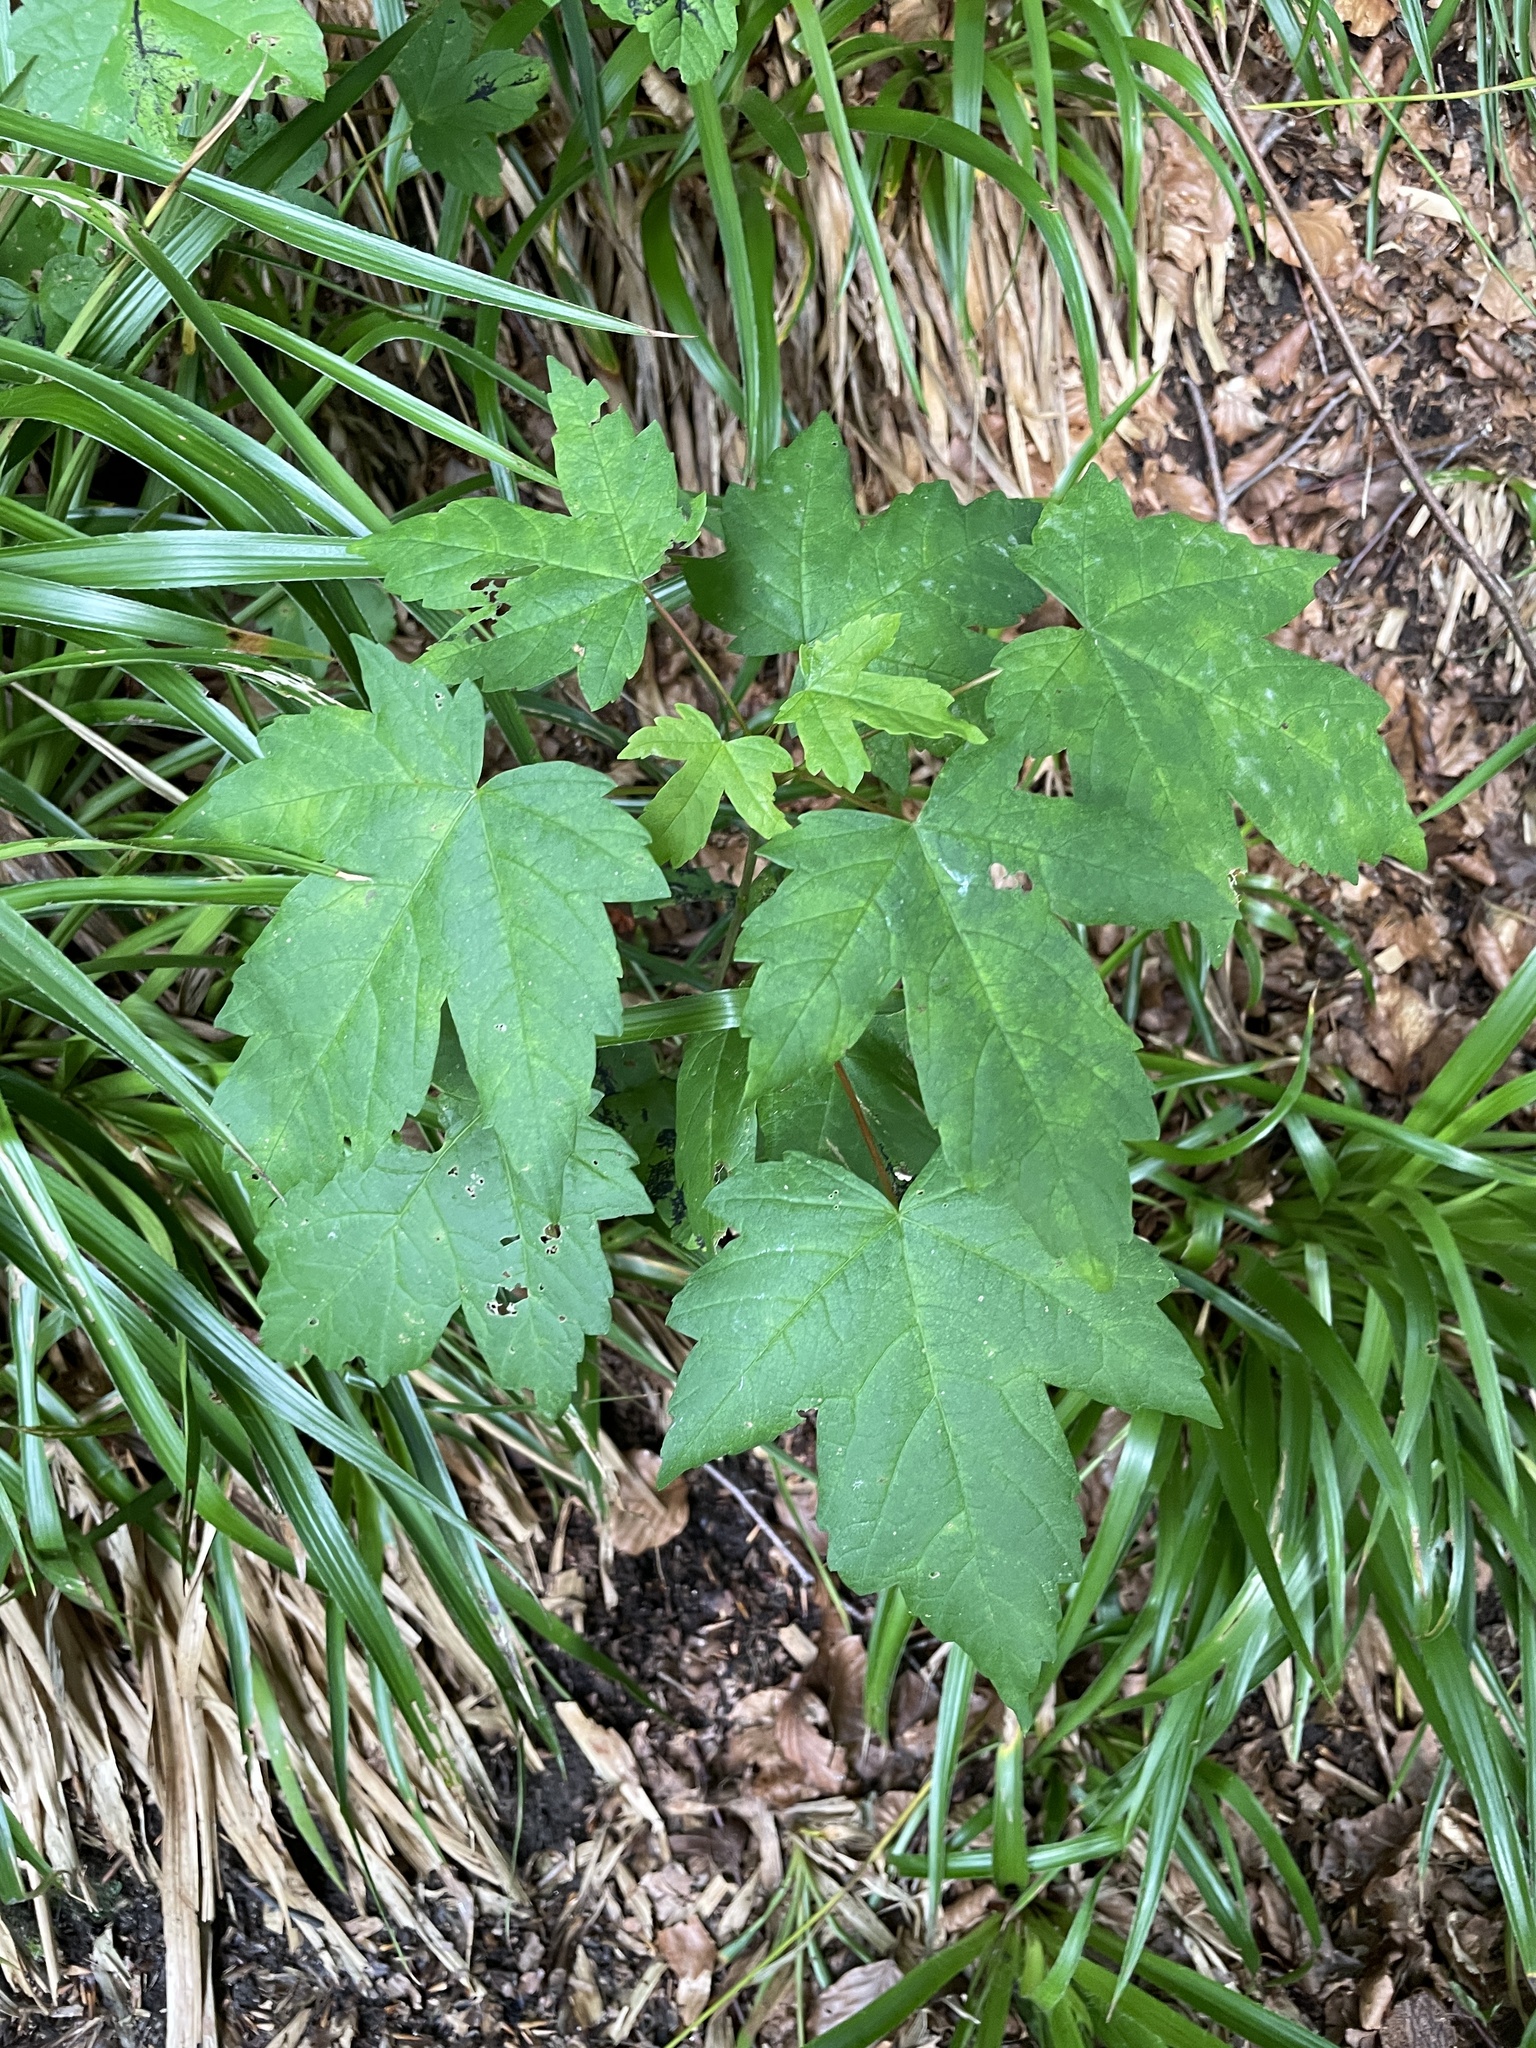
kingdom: Plantae
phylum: Tracheophyta
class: Magnoliopsida
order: Sapindales
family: Sapindaceae
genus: Acer
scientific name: Acer pseudoplatanus
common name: Sycamore
